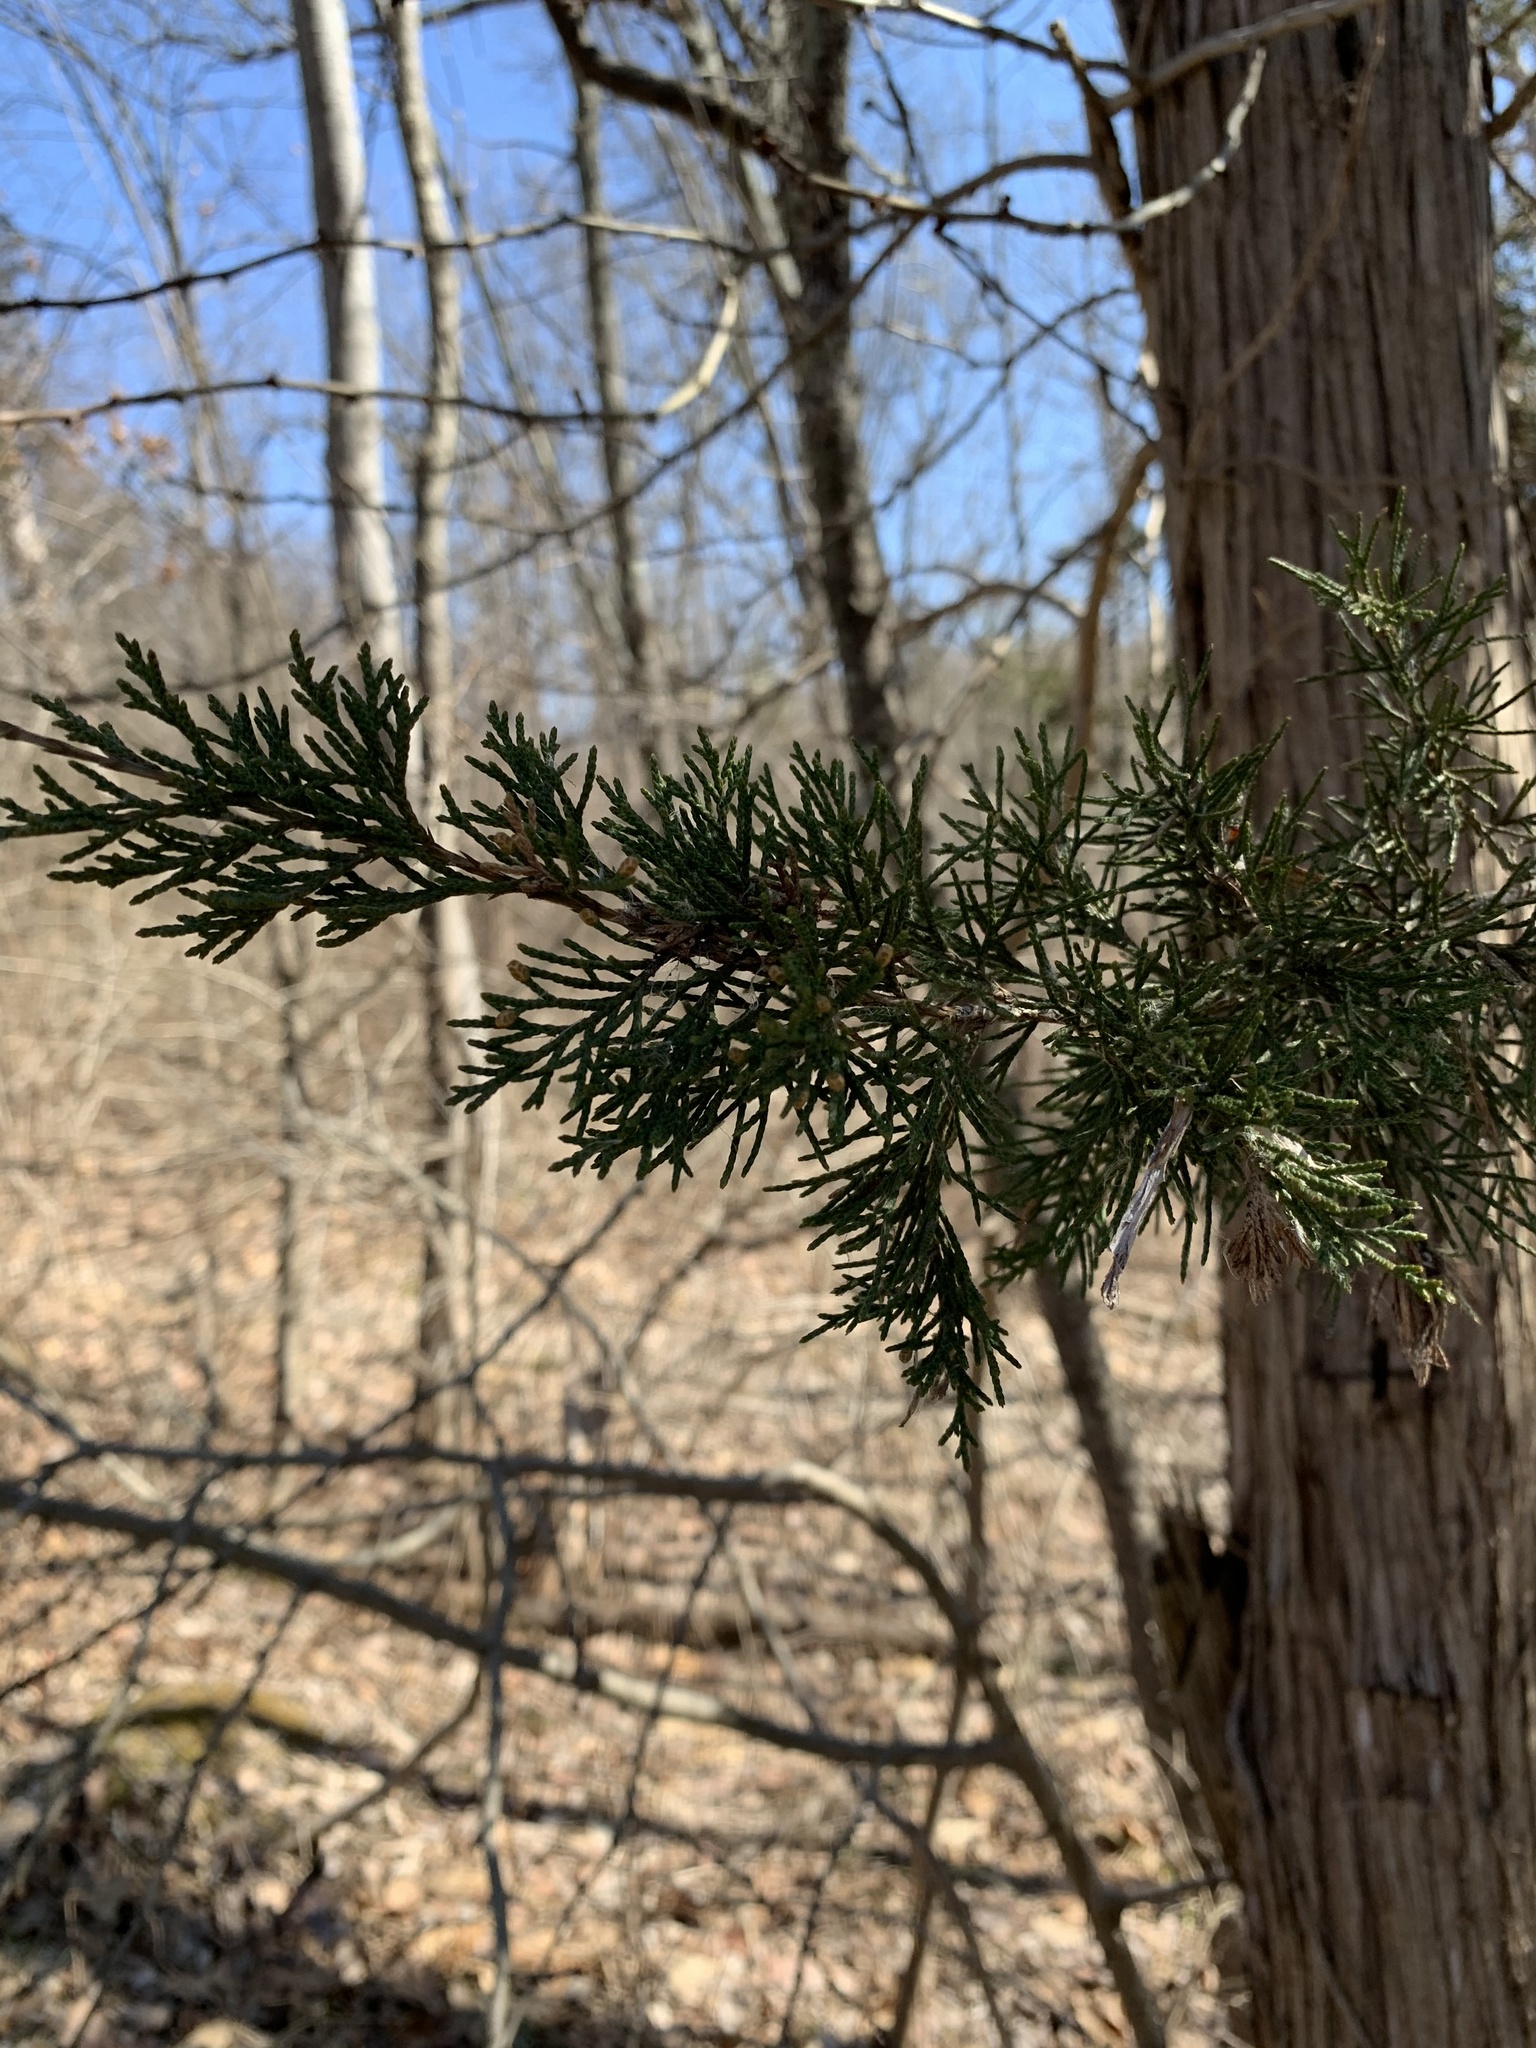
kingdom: Plantae
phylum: Tracheophyta
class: Pinopsida
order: Pinales
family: Cupressaceae
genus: Juniperus
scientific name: Juniperus virginiana
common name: Red juniper
